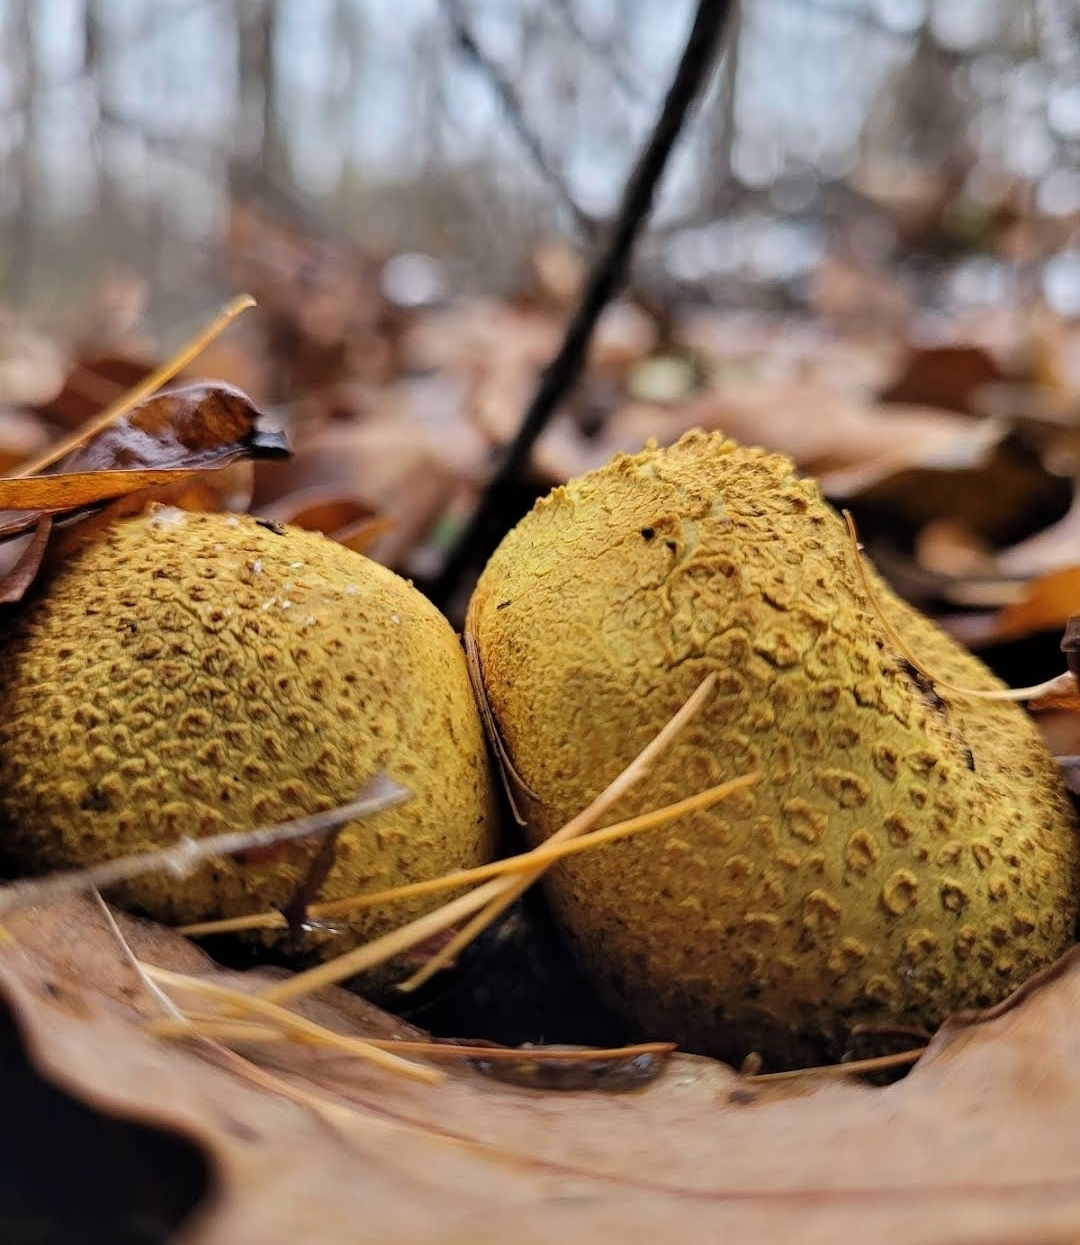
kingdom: Fungi
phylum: Basidiomycota
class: Agaricomycetes
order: Boletales
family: Sclerodermataceae
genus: Scleroderma
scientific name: Scleroderma citrinum
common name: Common earthball
